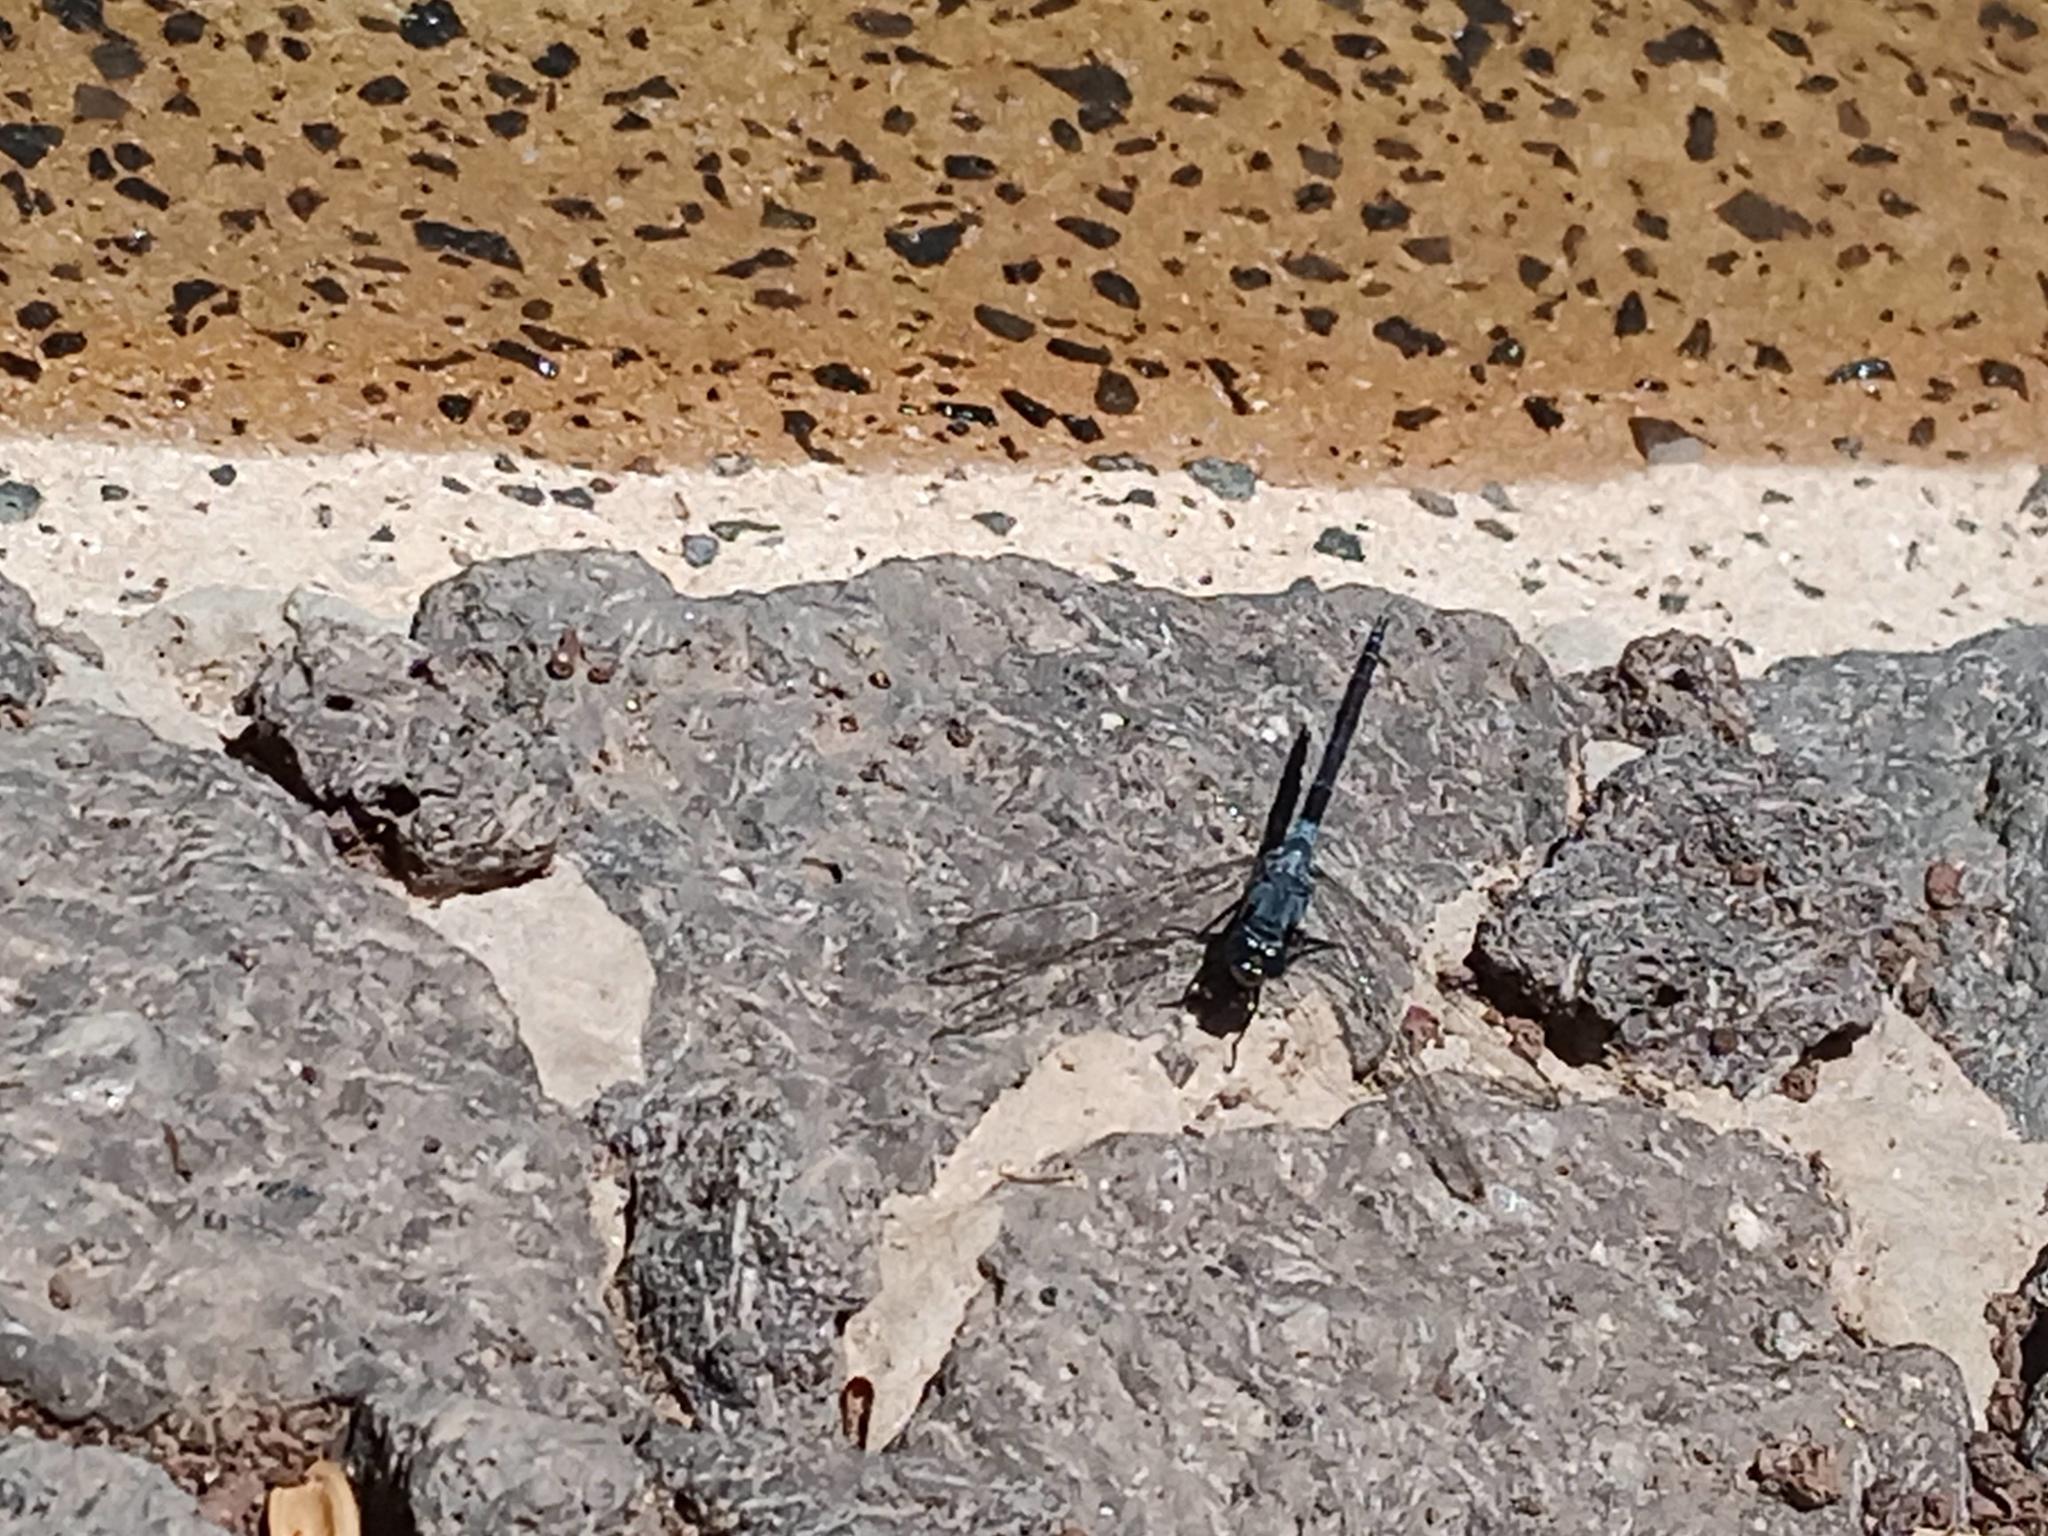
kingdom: Animalia
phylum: Arthropoda
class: Insecta
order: Odonata
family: Libellulidae
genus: Orthetrum
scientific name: Orthetrum trinacria
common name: Long skimmer
